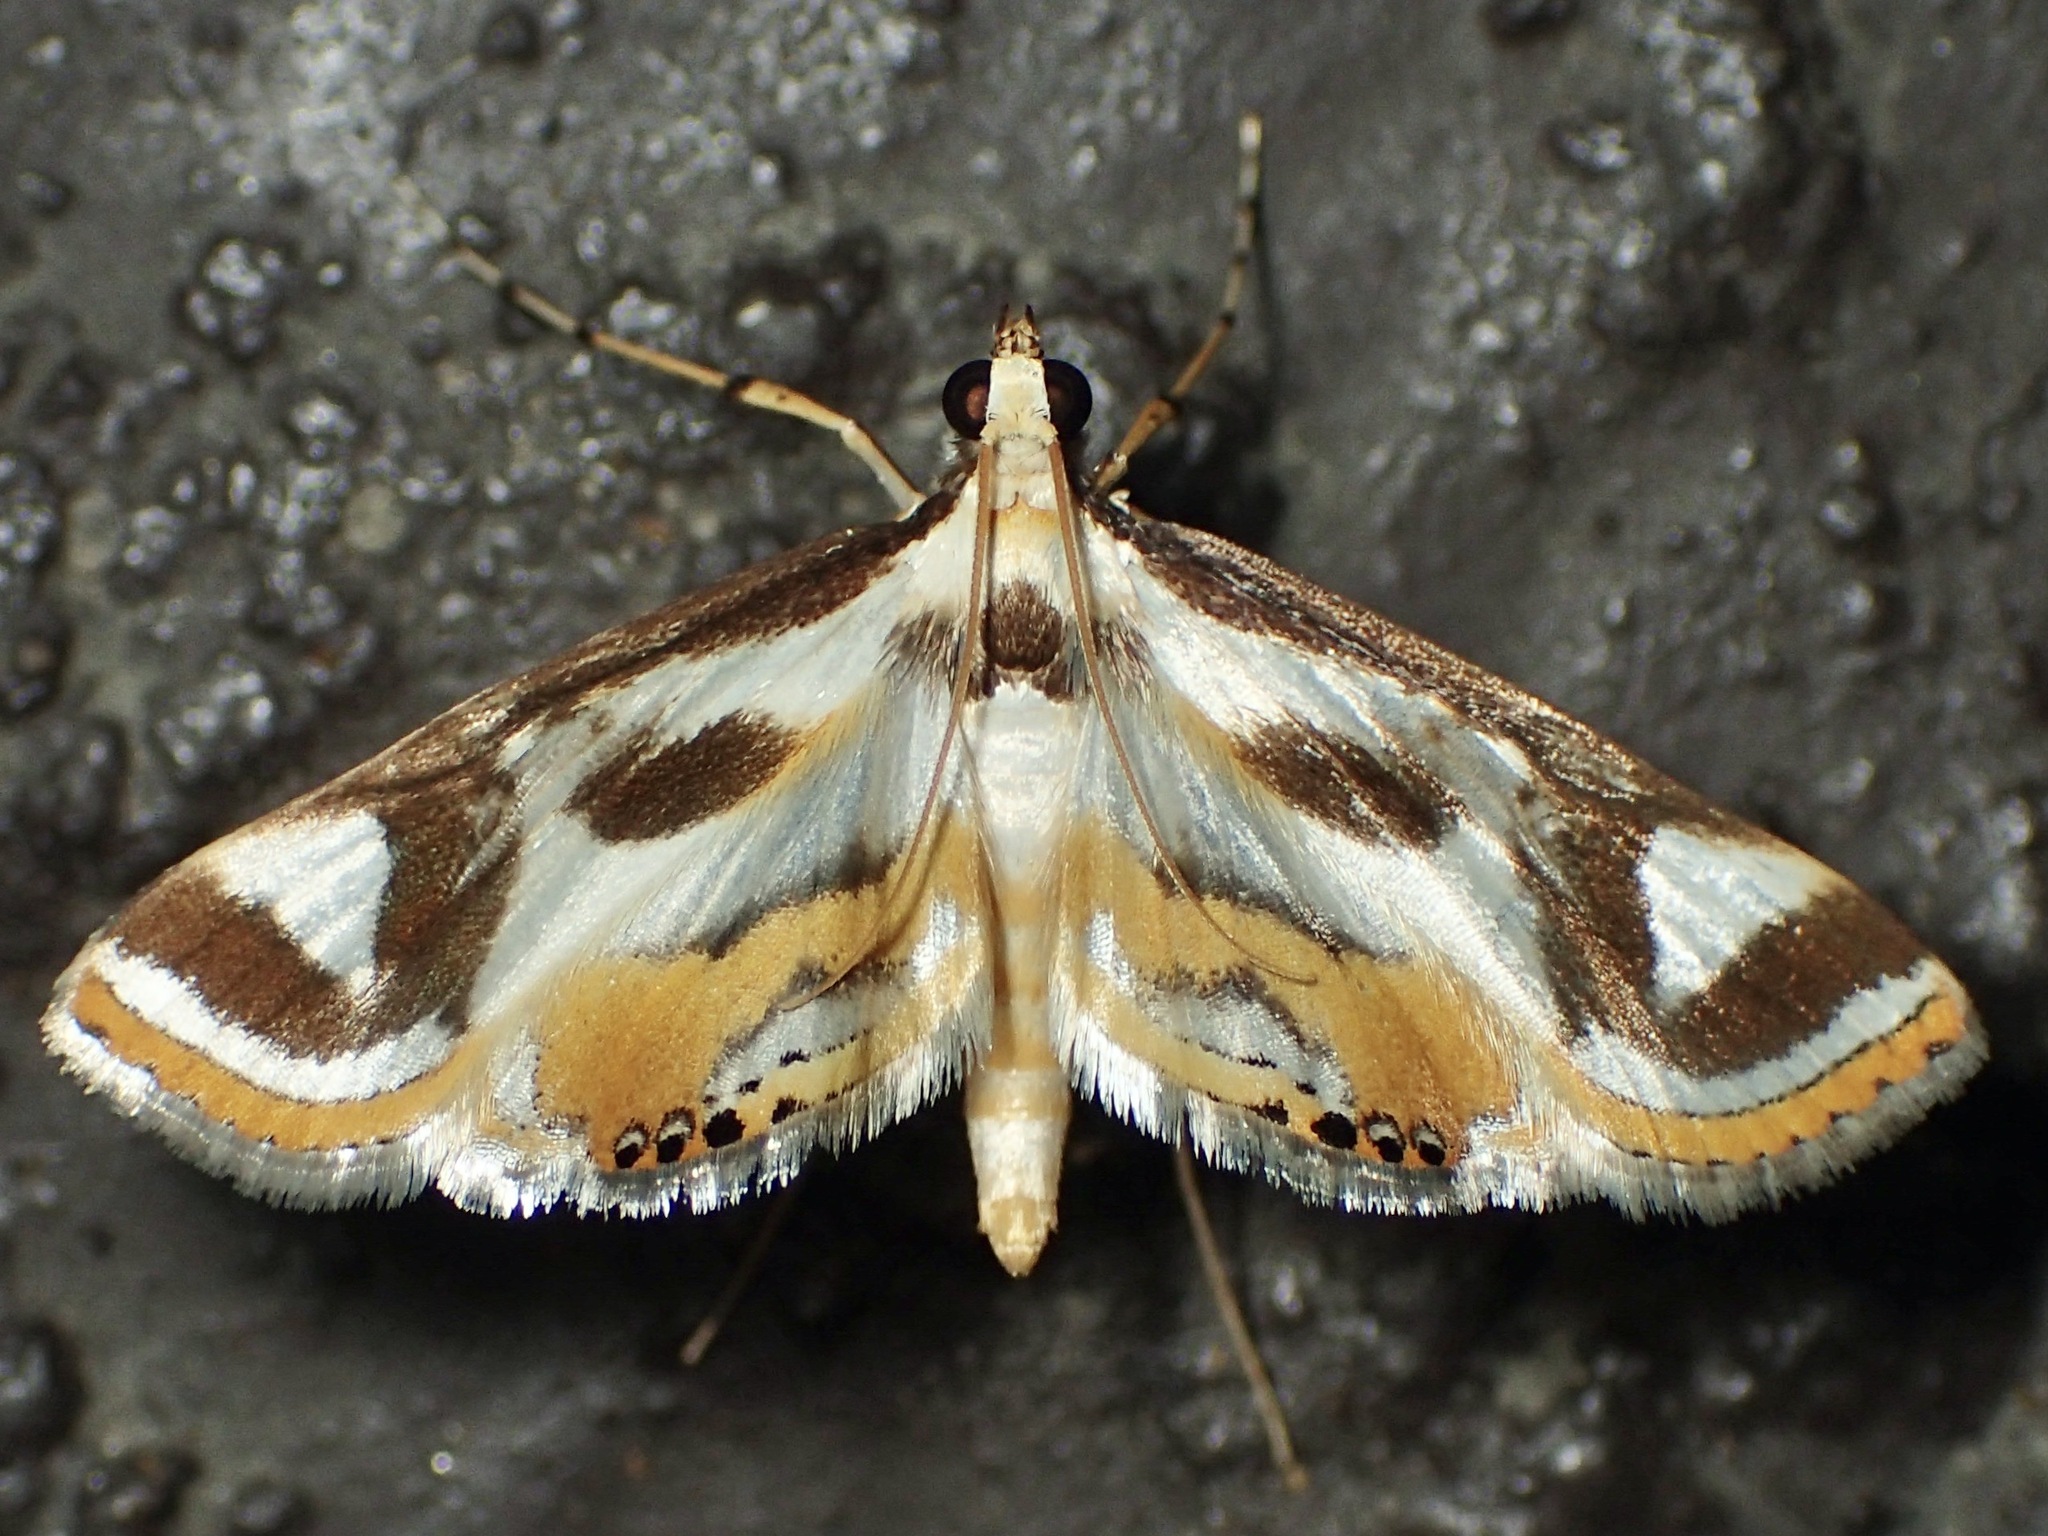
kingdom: Animalia
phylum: Arthropoda
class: Insecta
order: Lepidoptera
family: Crambidae
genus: Theila
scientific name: Theila siennata
